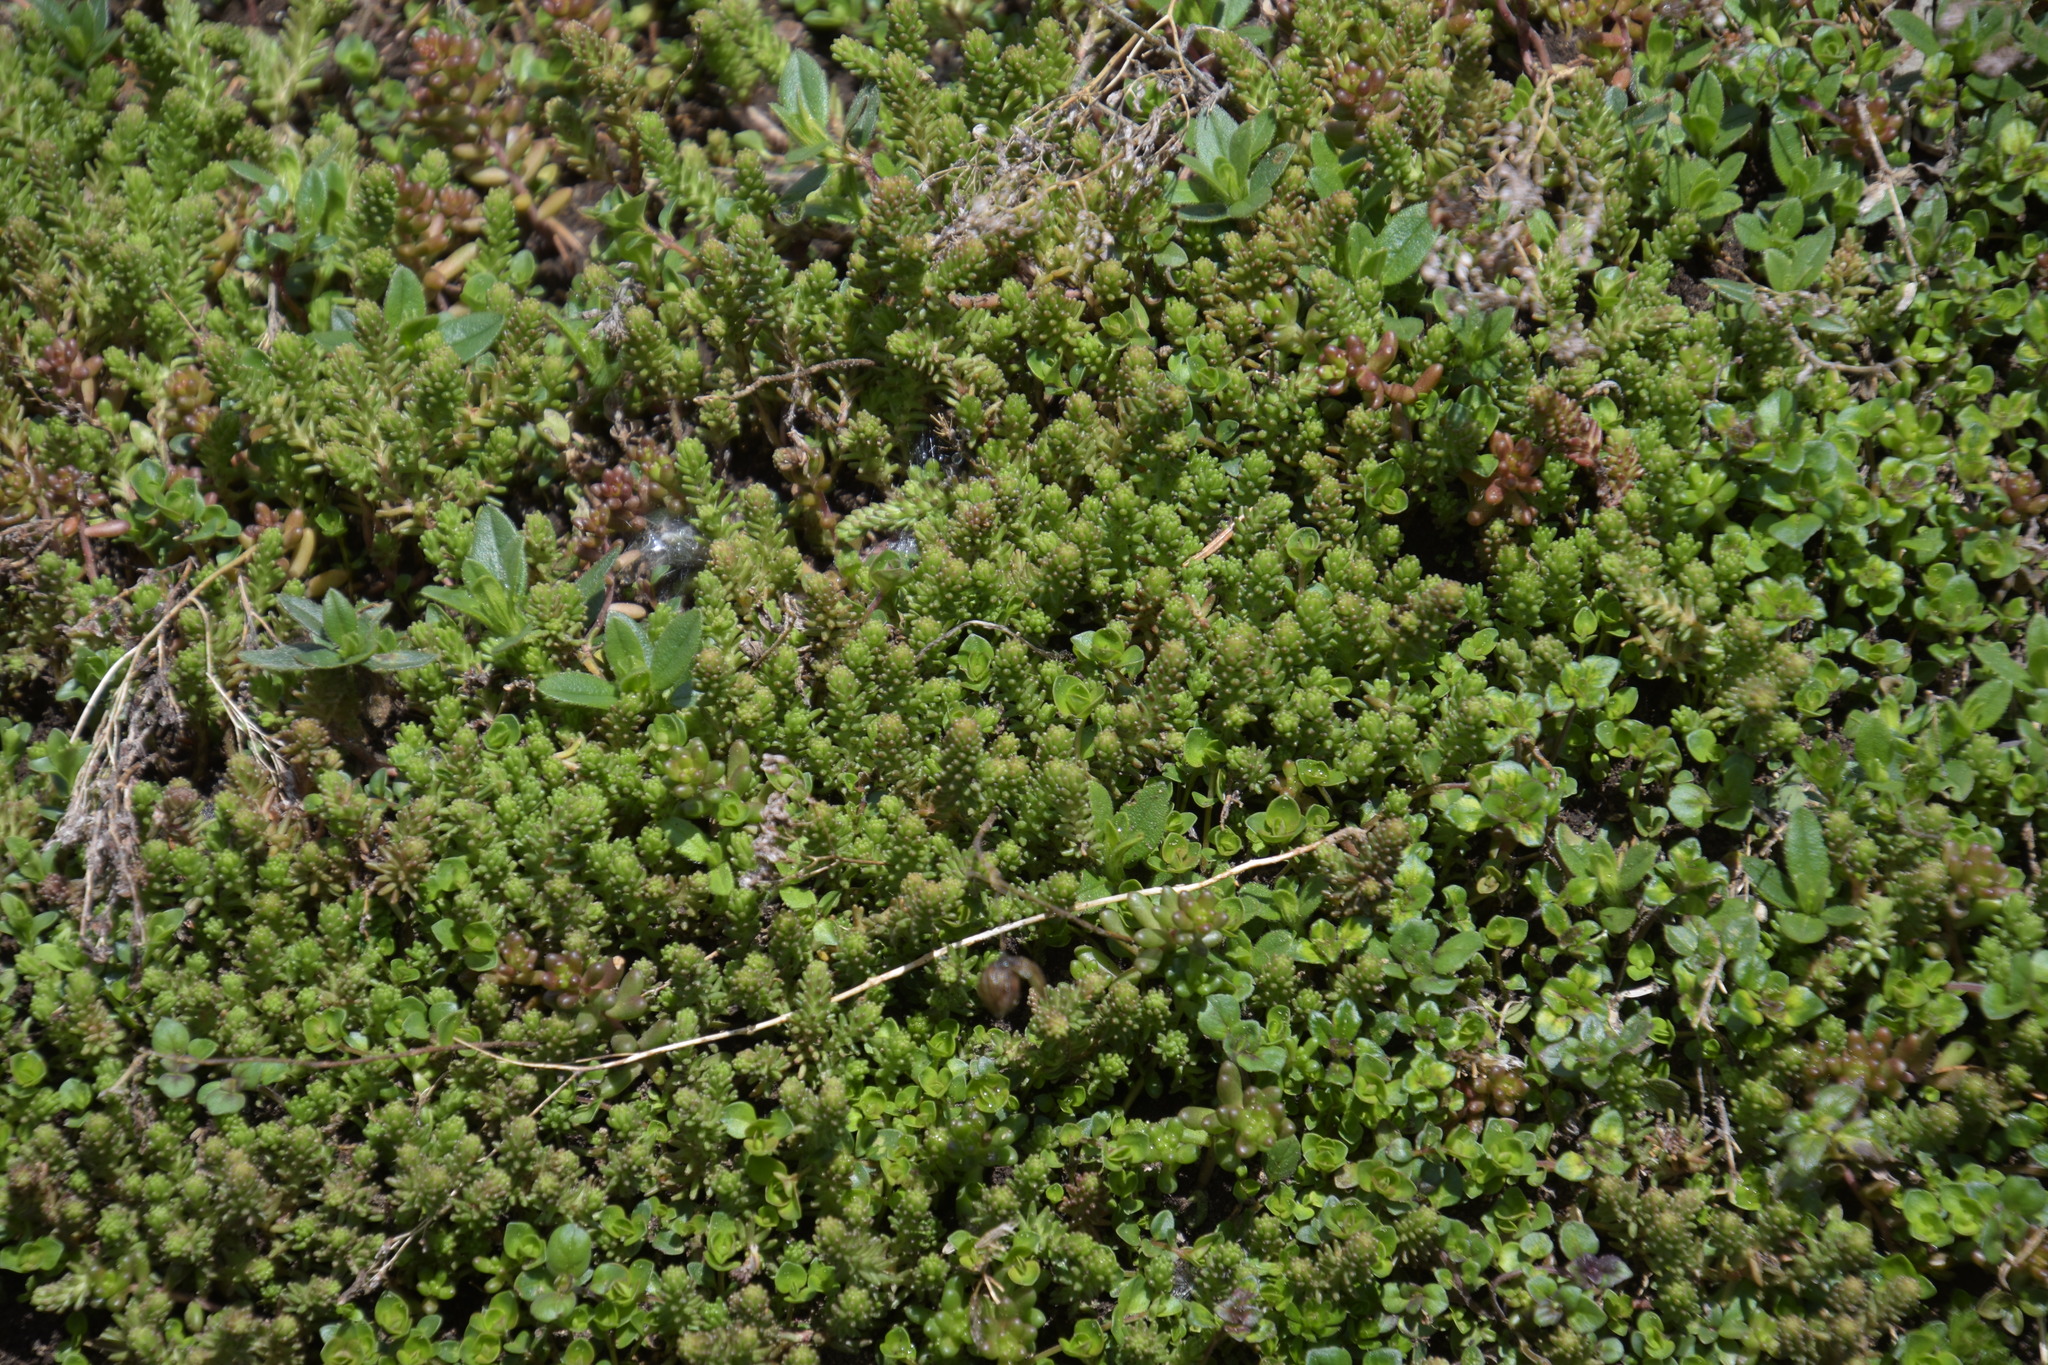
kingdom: Plantae
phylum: Tracheophyta
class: Magnoliopsida
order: Saxifragales
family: Crassulaceae
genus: Sedum
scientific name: Sedum sexangulare
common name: Tasteless stonecrop
